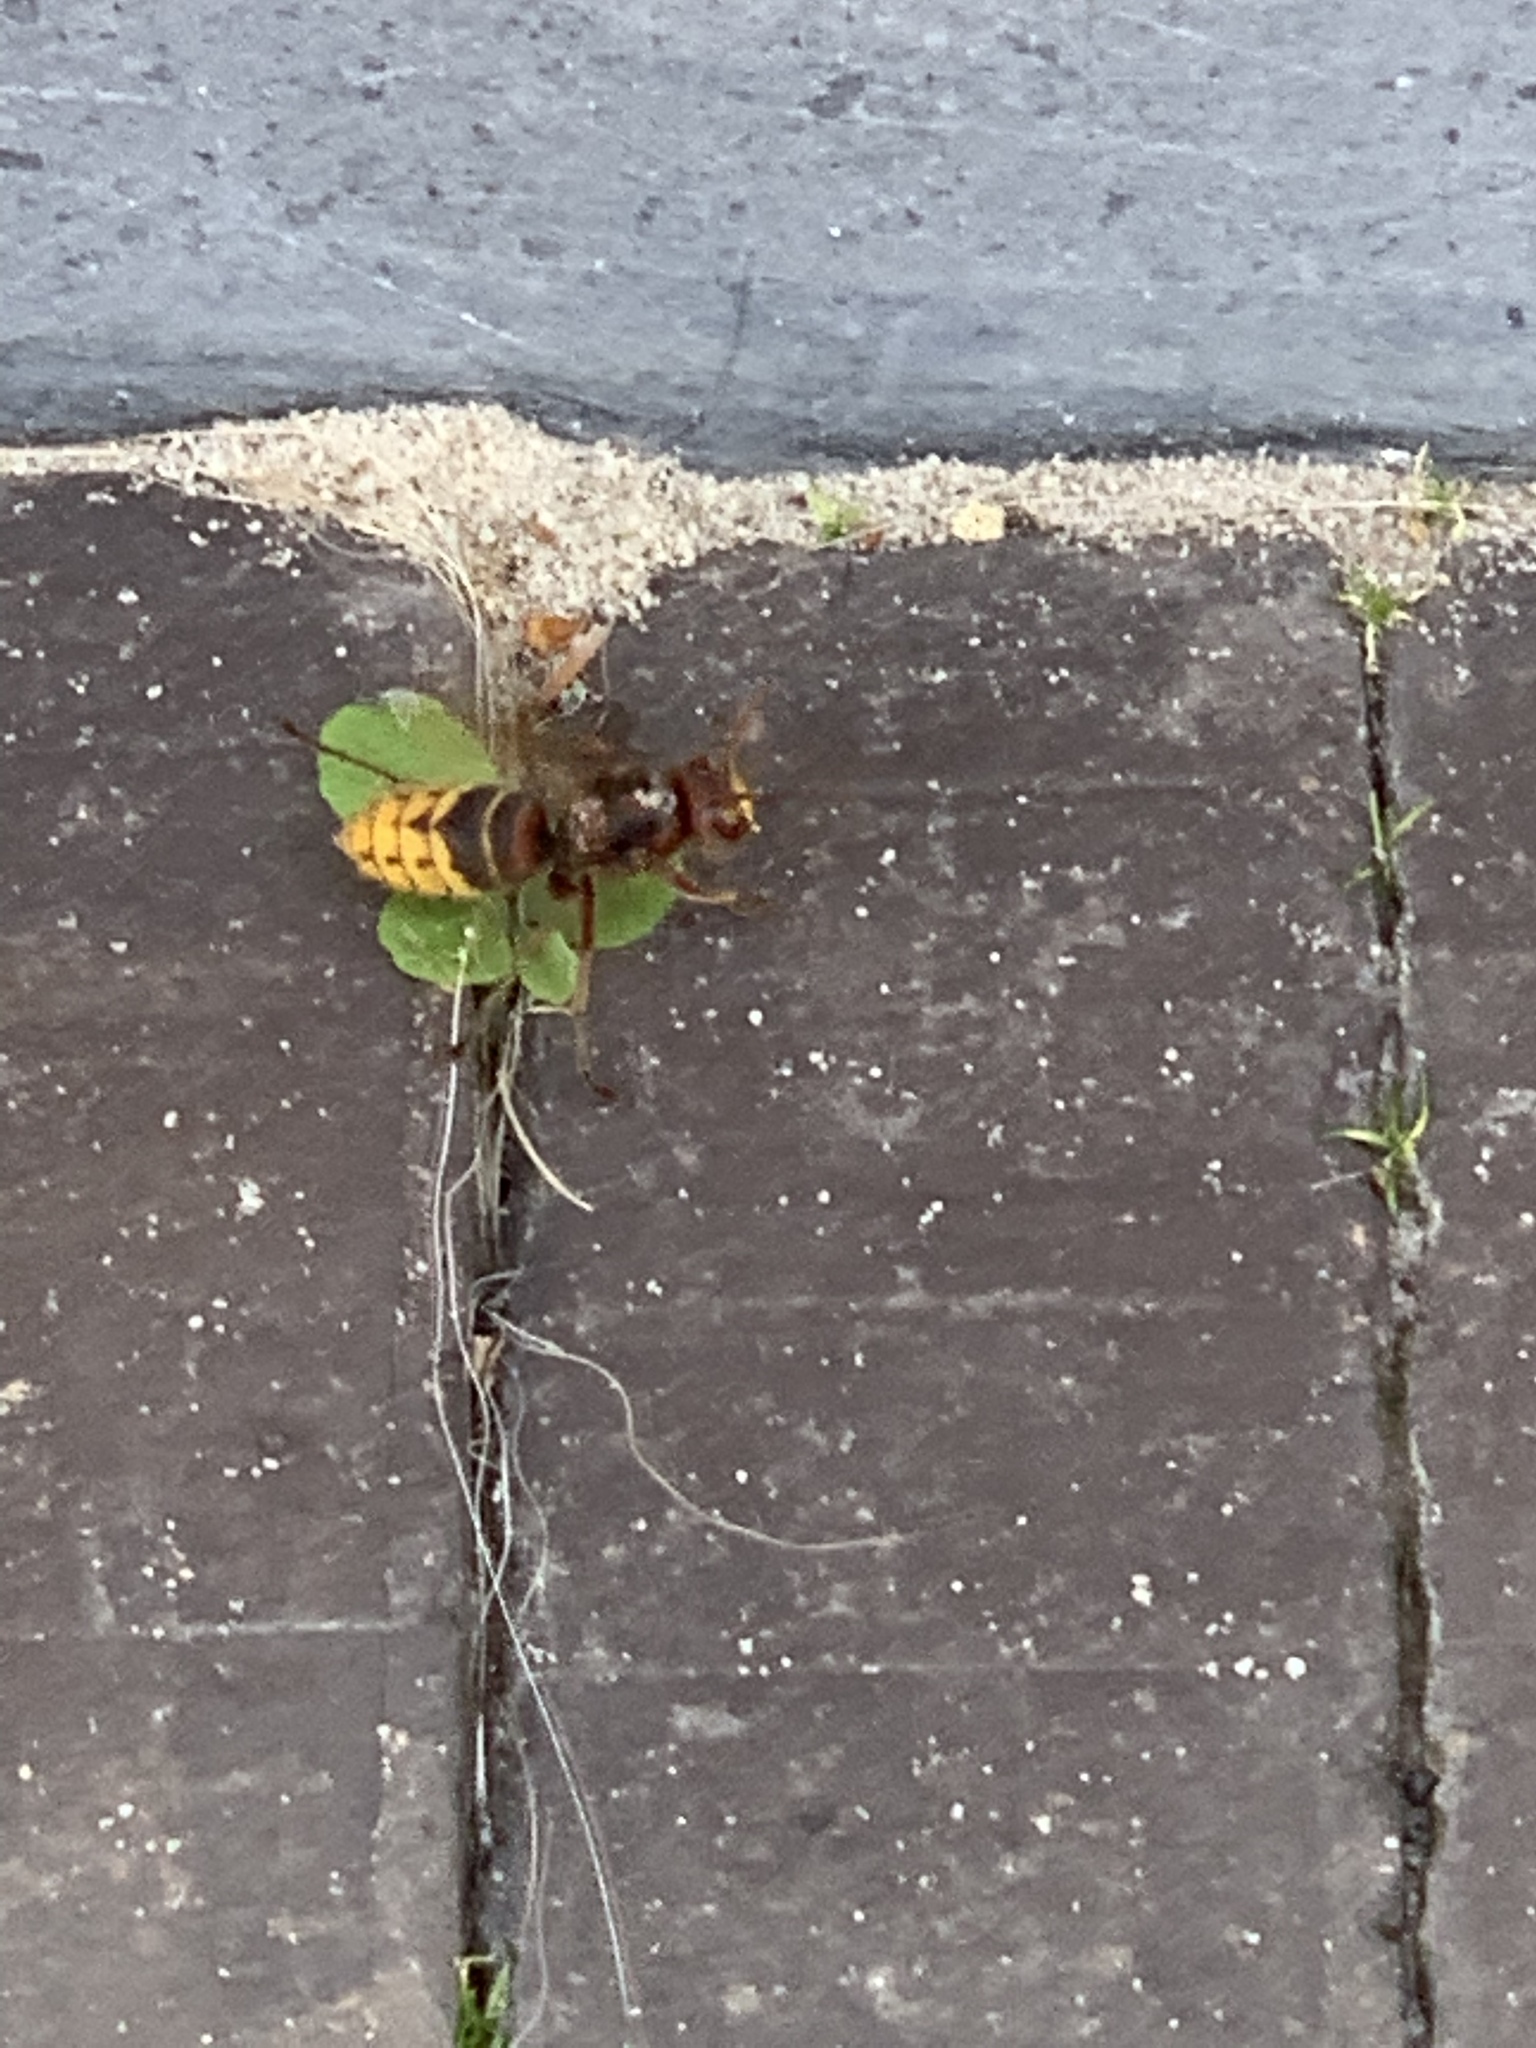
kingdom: Animalia
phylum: Arthropoda
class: Insecta
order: Hymenoptera
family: Vespidae
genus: Vespa
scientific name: Vespa crabro
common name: Hornet
